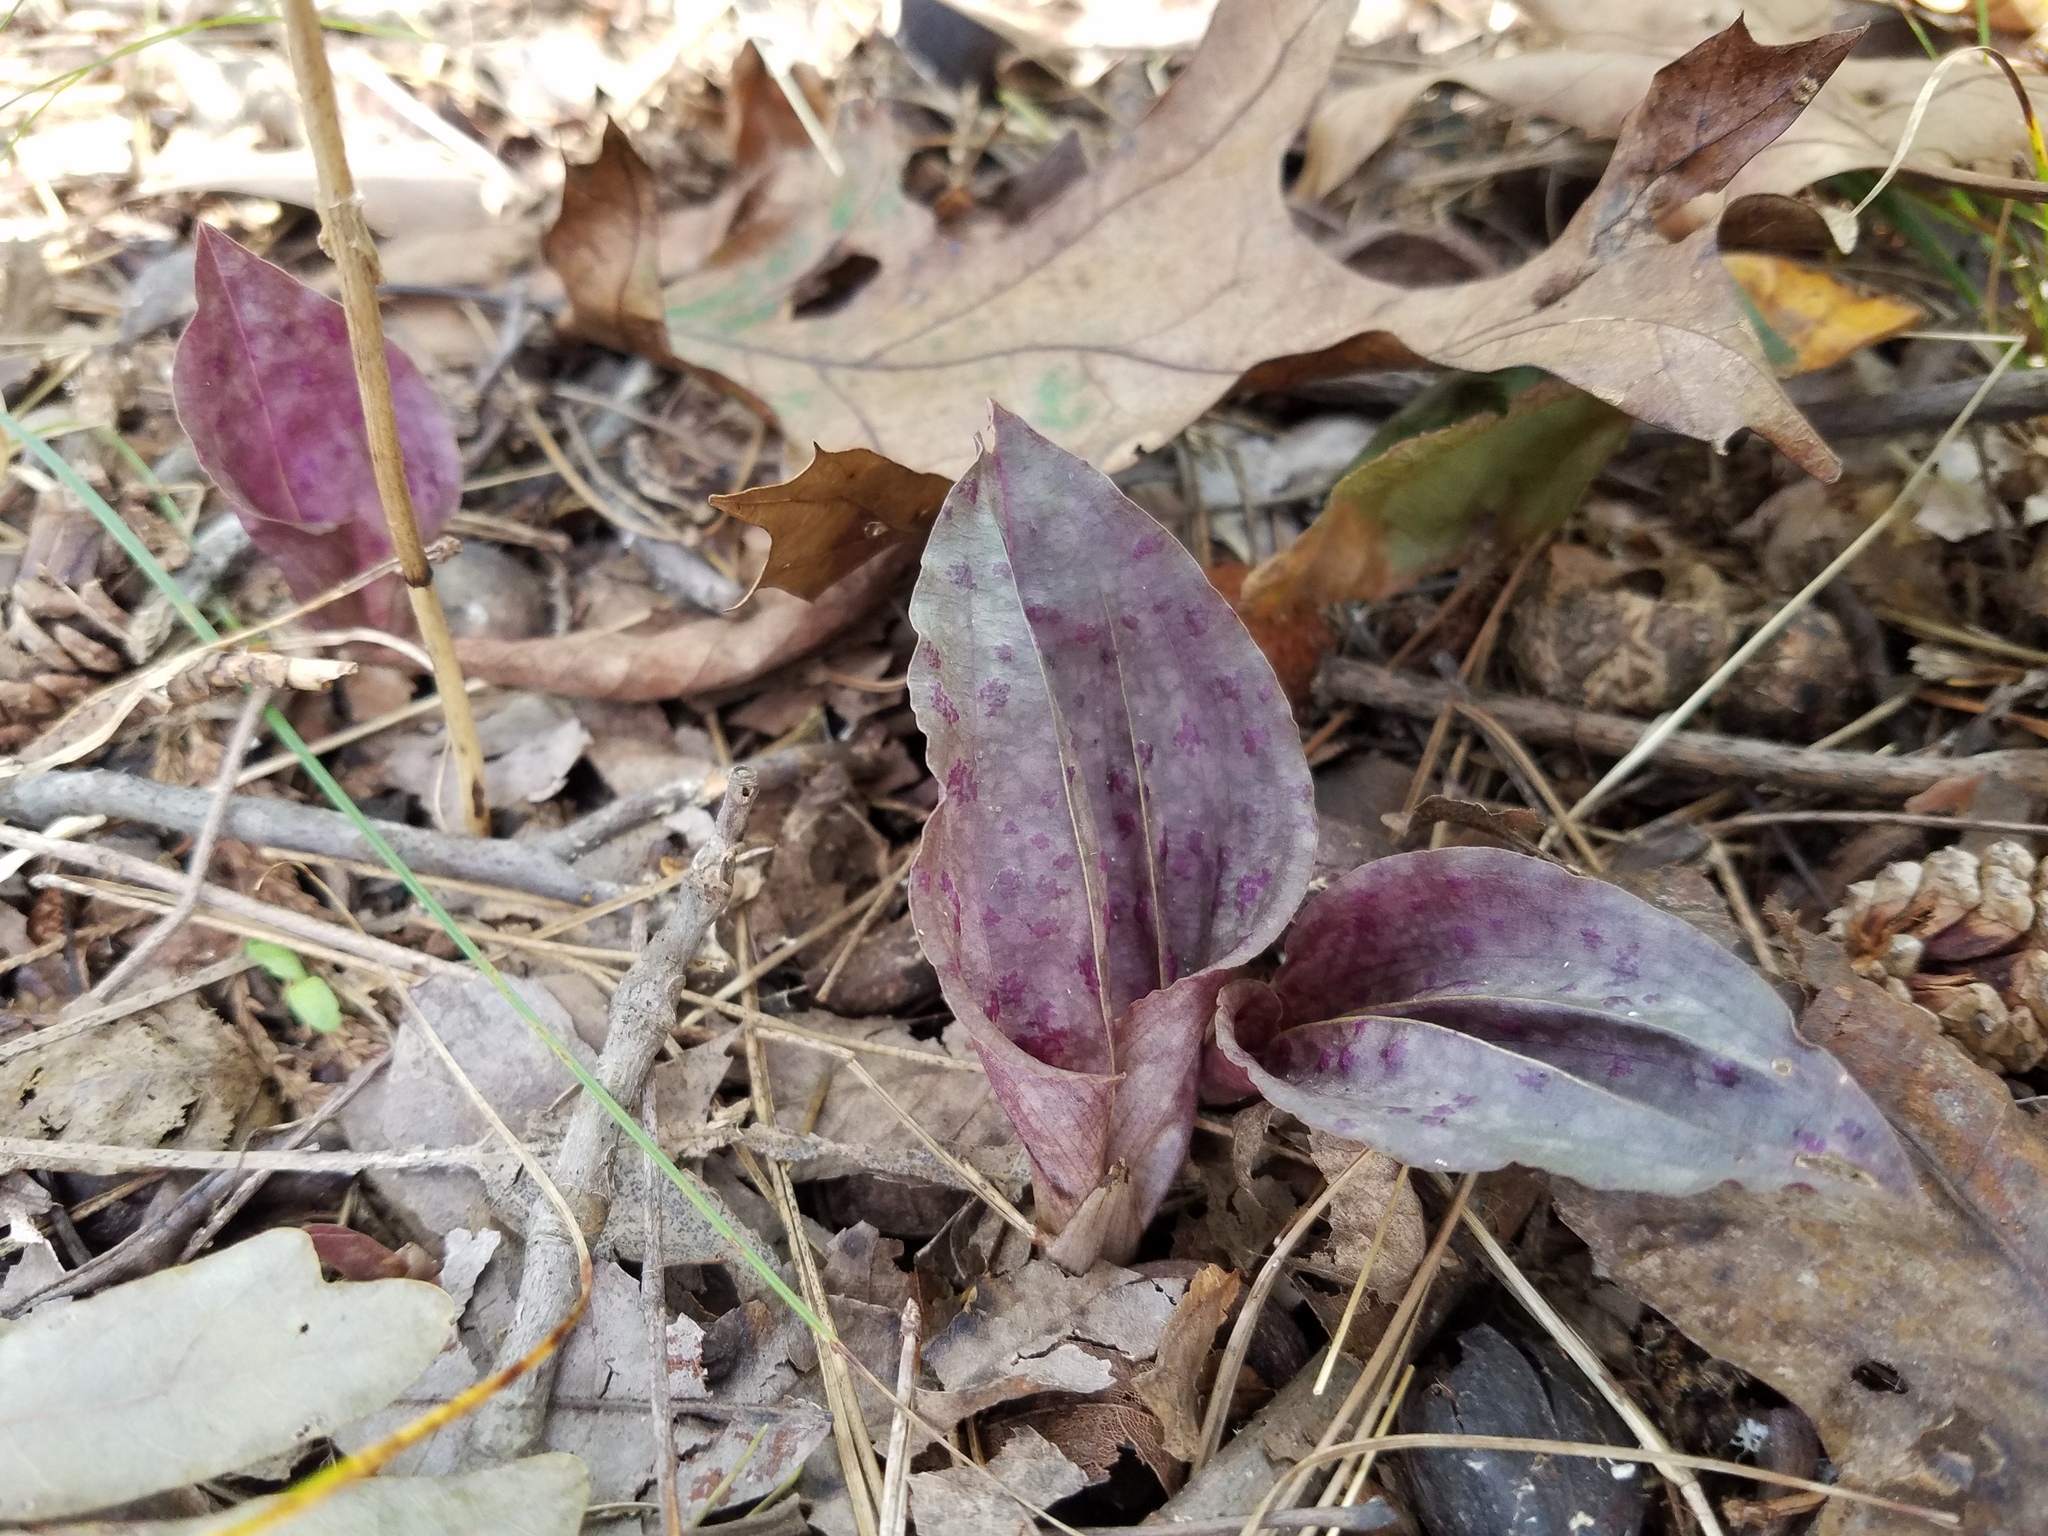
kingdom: Plantae
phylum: Tracheophyta
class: Liliopsida
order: Asparagales
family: Orchidaceae
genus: Tipularia
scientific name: Tipularia discolor
